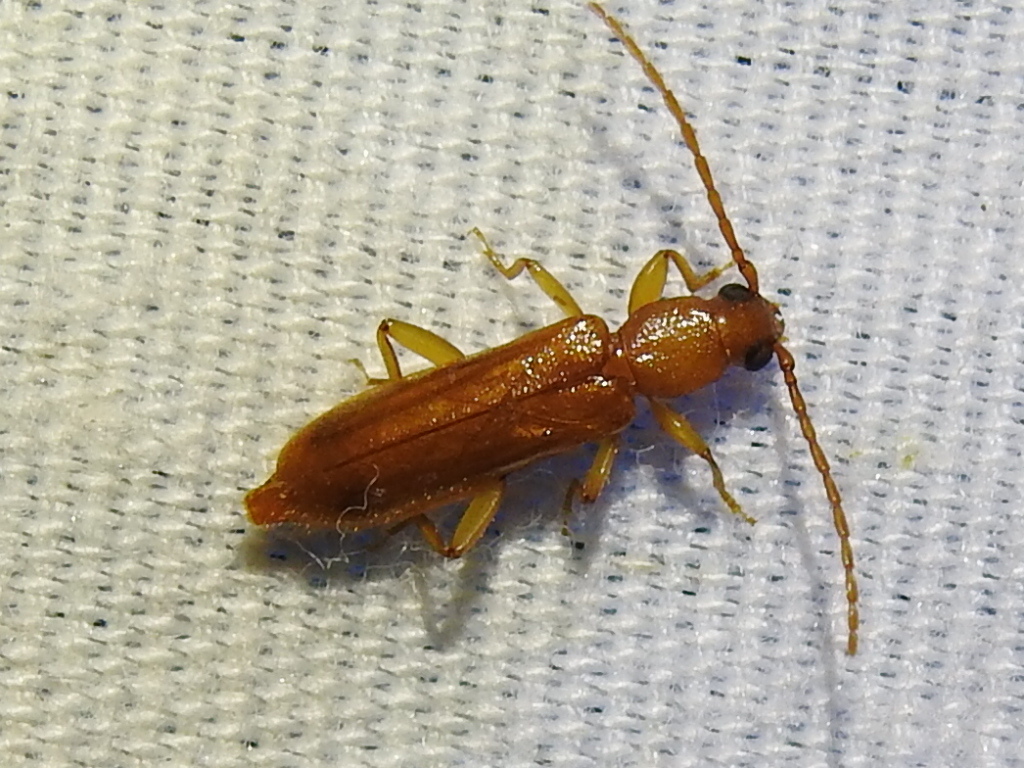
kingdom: Animalia
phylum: Arthropoda
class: Insecta
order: Coleoptera
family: Cerambycidae
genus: Smodicum
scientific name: Smodicum cucujiforme
